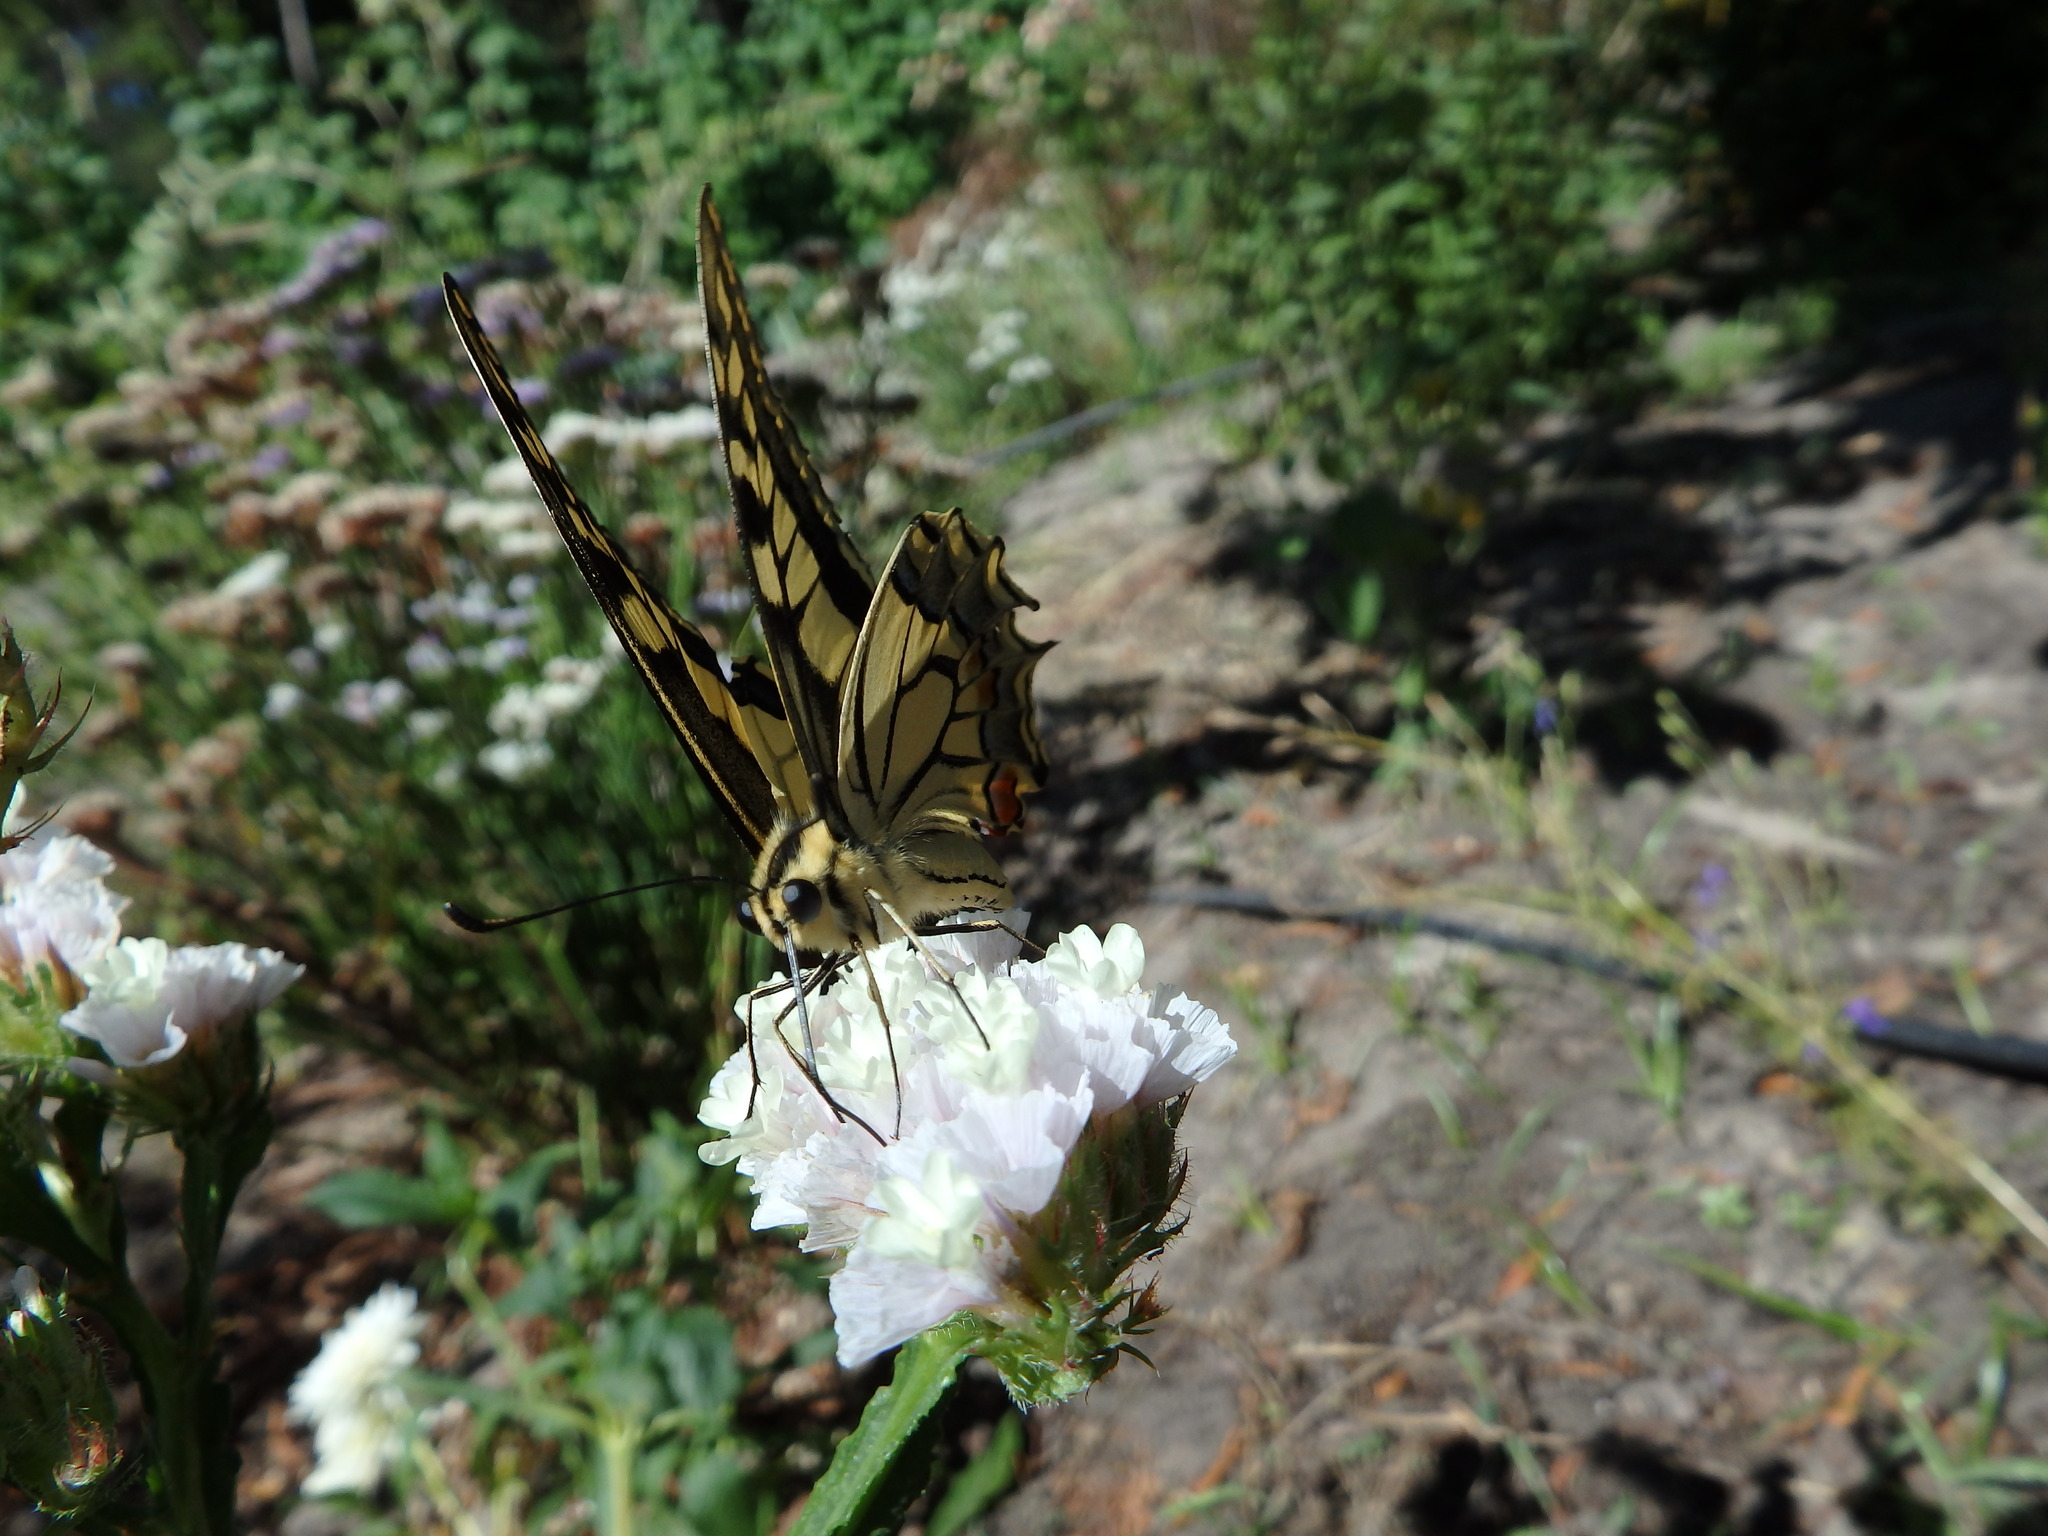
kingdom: Animalia
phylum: Arthropoda
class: Insecta
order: Lepidoptera
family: Papilionidae
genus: Papilio
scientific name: Papilio machaon
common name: Swallowtail
